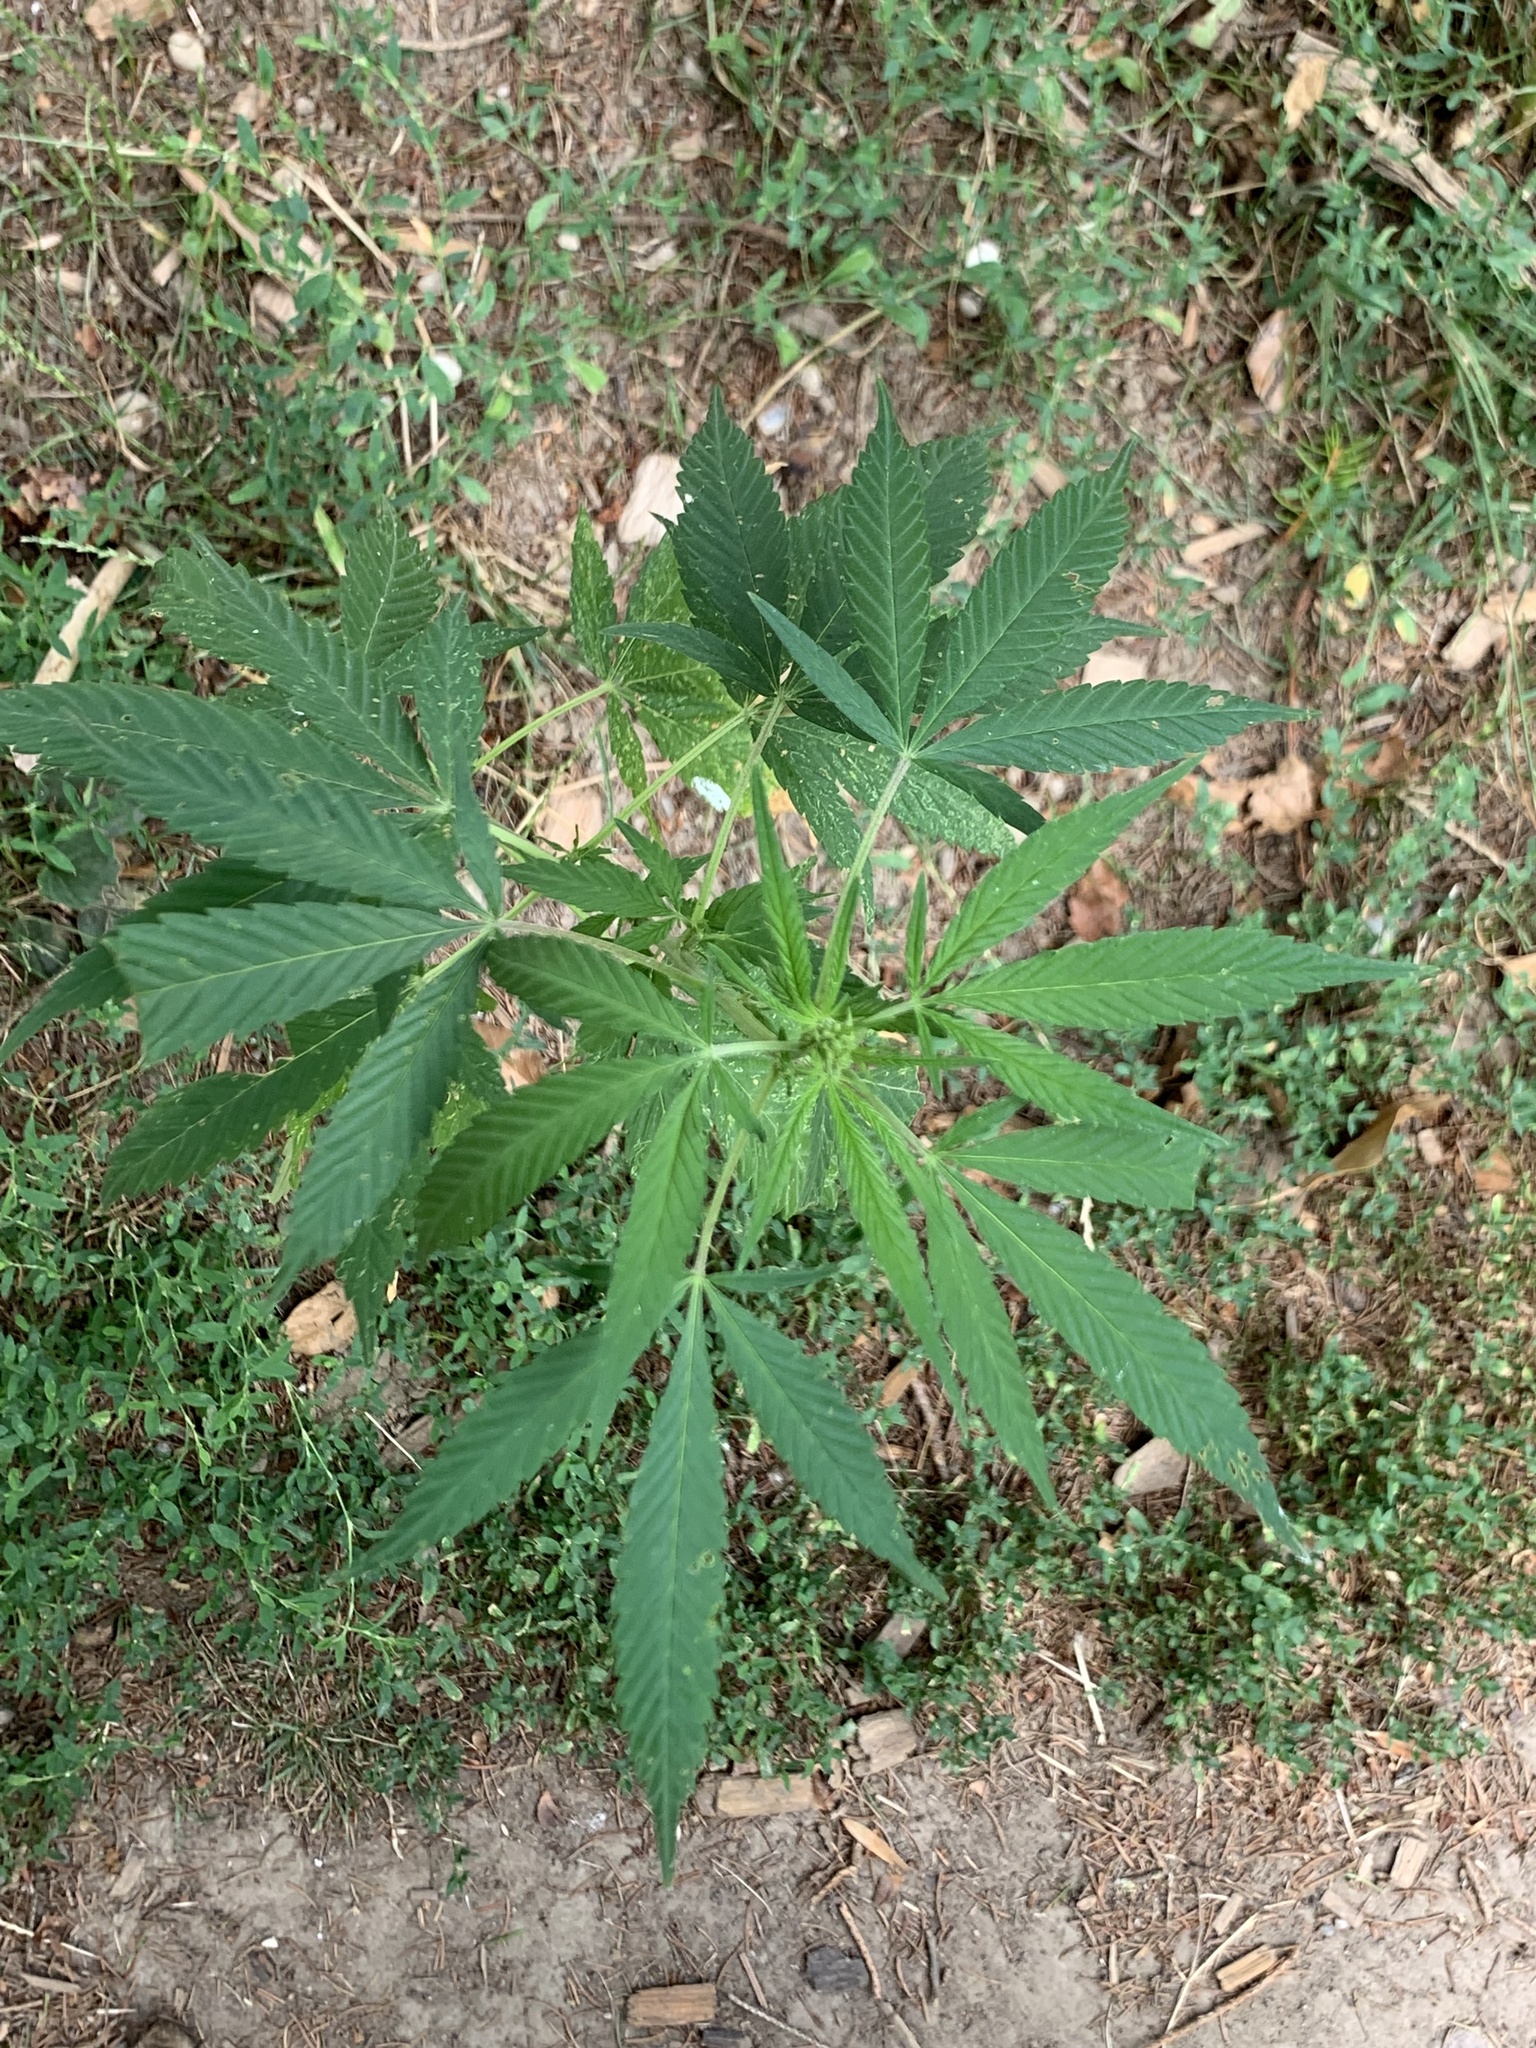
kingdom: Plantae
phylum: Tracheophyta
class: Magnoliopsida
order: Rosales
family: Cannabaceae
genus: Cannabis
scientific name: Cannabis sativa
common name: Hemp
